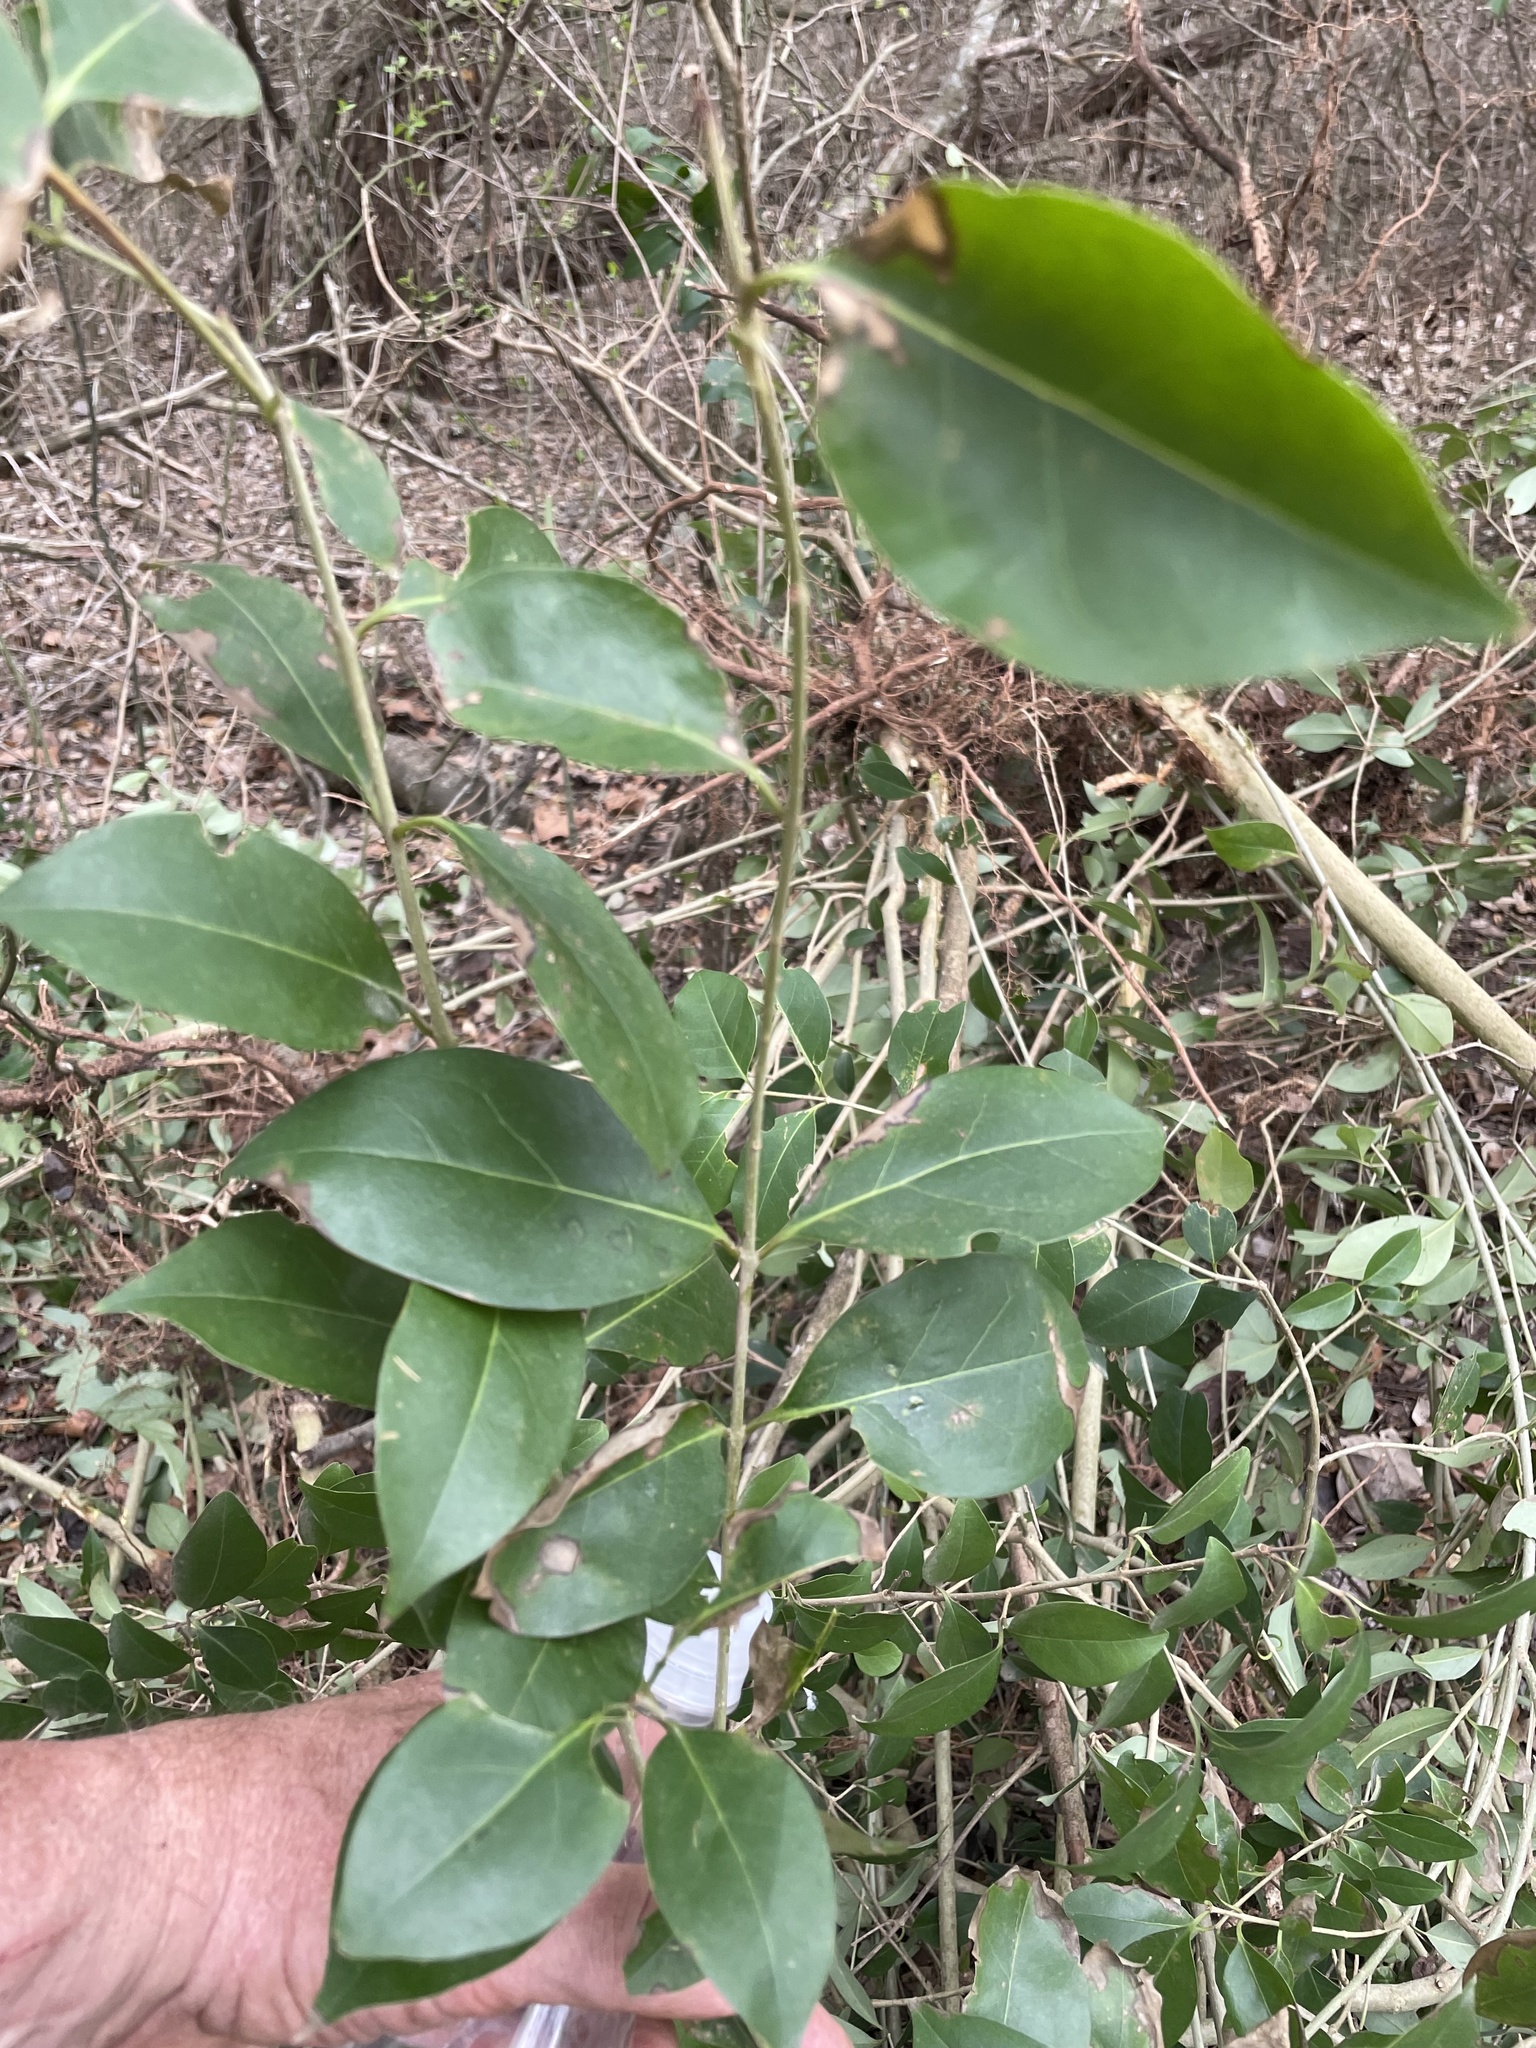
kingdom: Plantae
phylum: Tracheophyta
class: Magnoliopsida
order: Lamiales
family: Oleaceae
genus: Ligustrum
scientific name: Ligustrum lucidum
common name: Glossy privet
